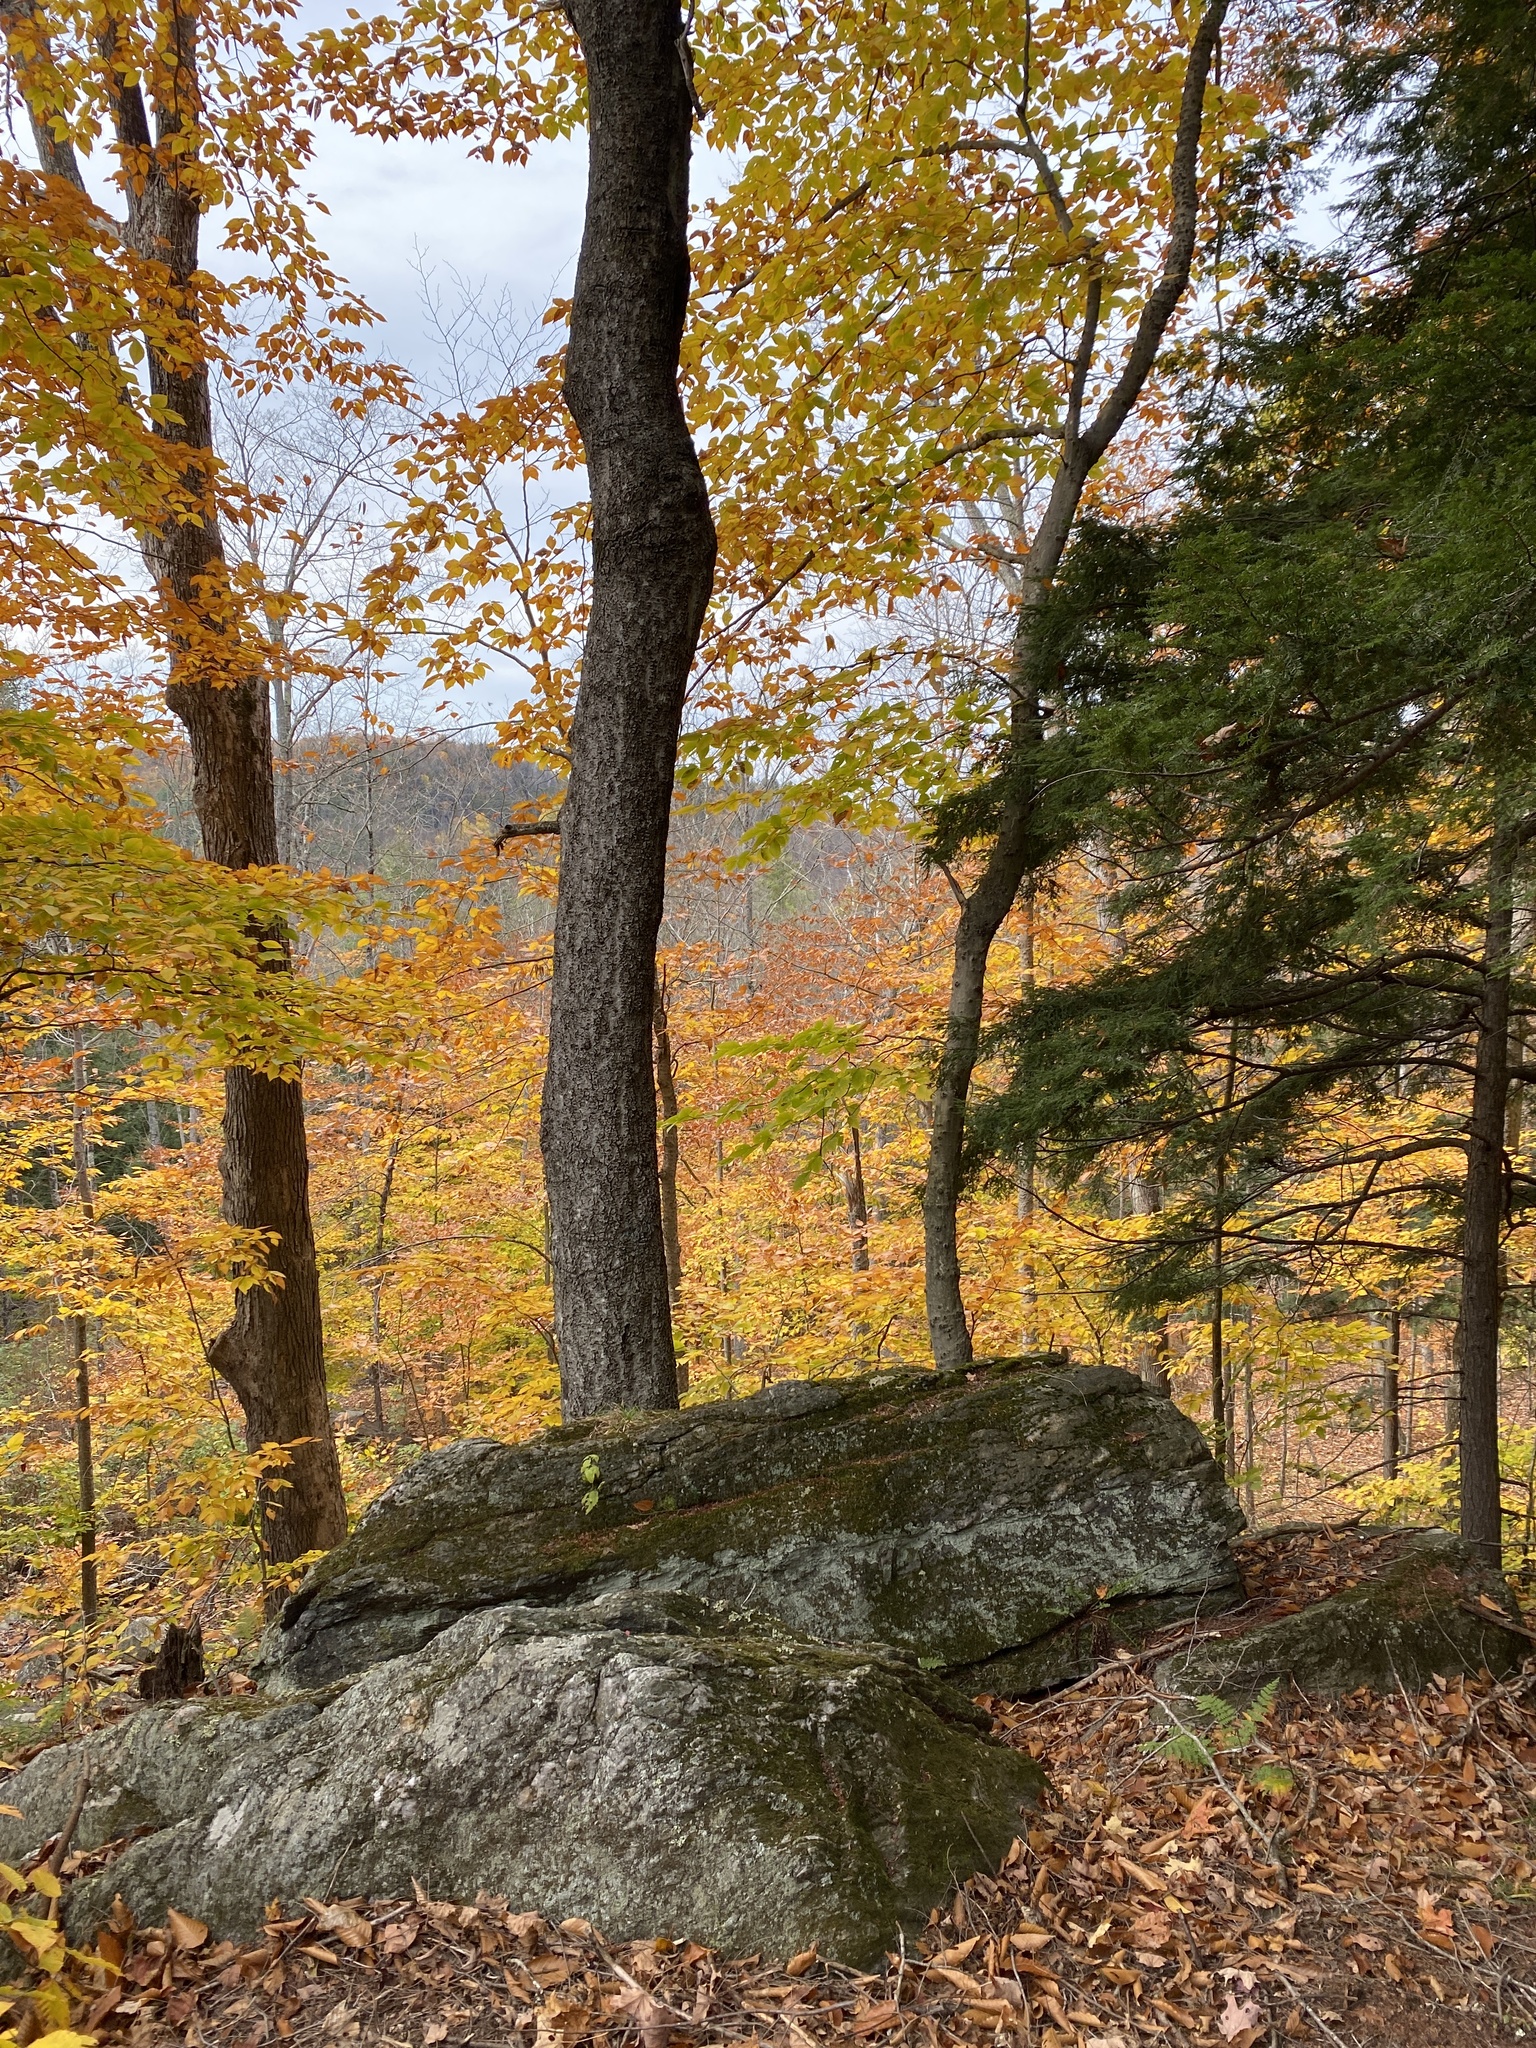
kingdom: Plantae
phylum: Tracheophyta
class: Magnoliopsida
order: Sapindales
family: Sapindaceae
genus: Acer
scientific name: Acer saccharum
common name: Sugar maple
